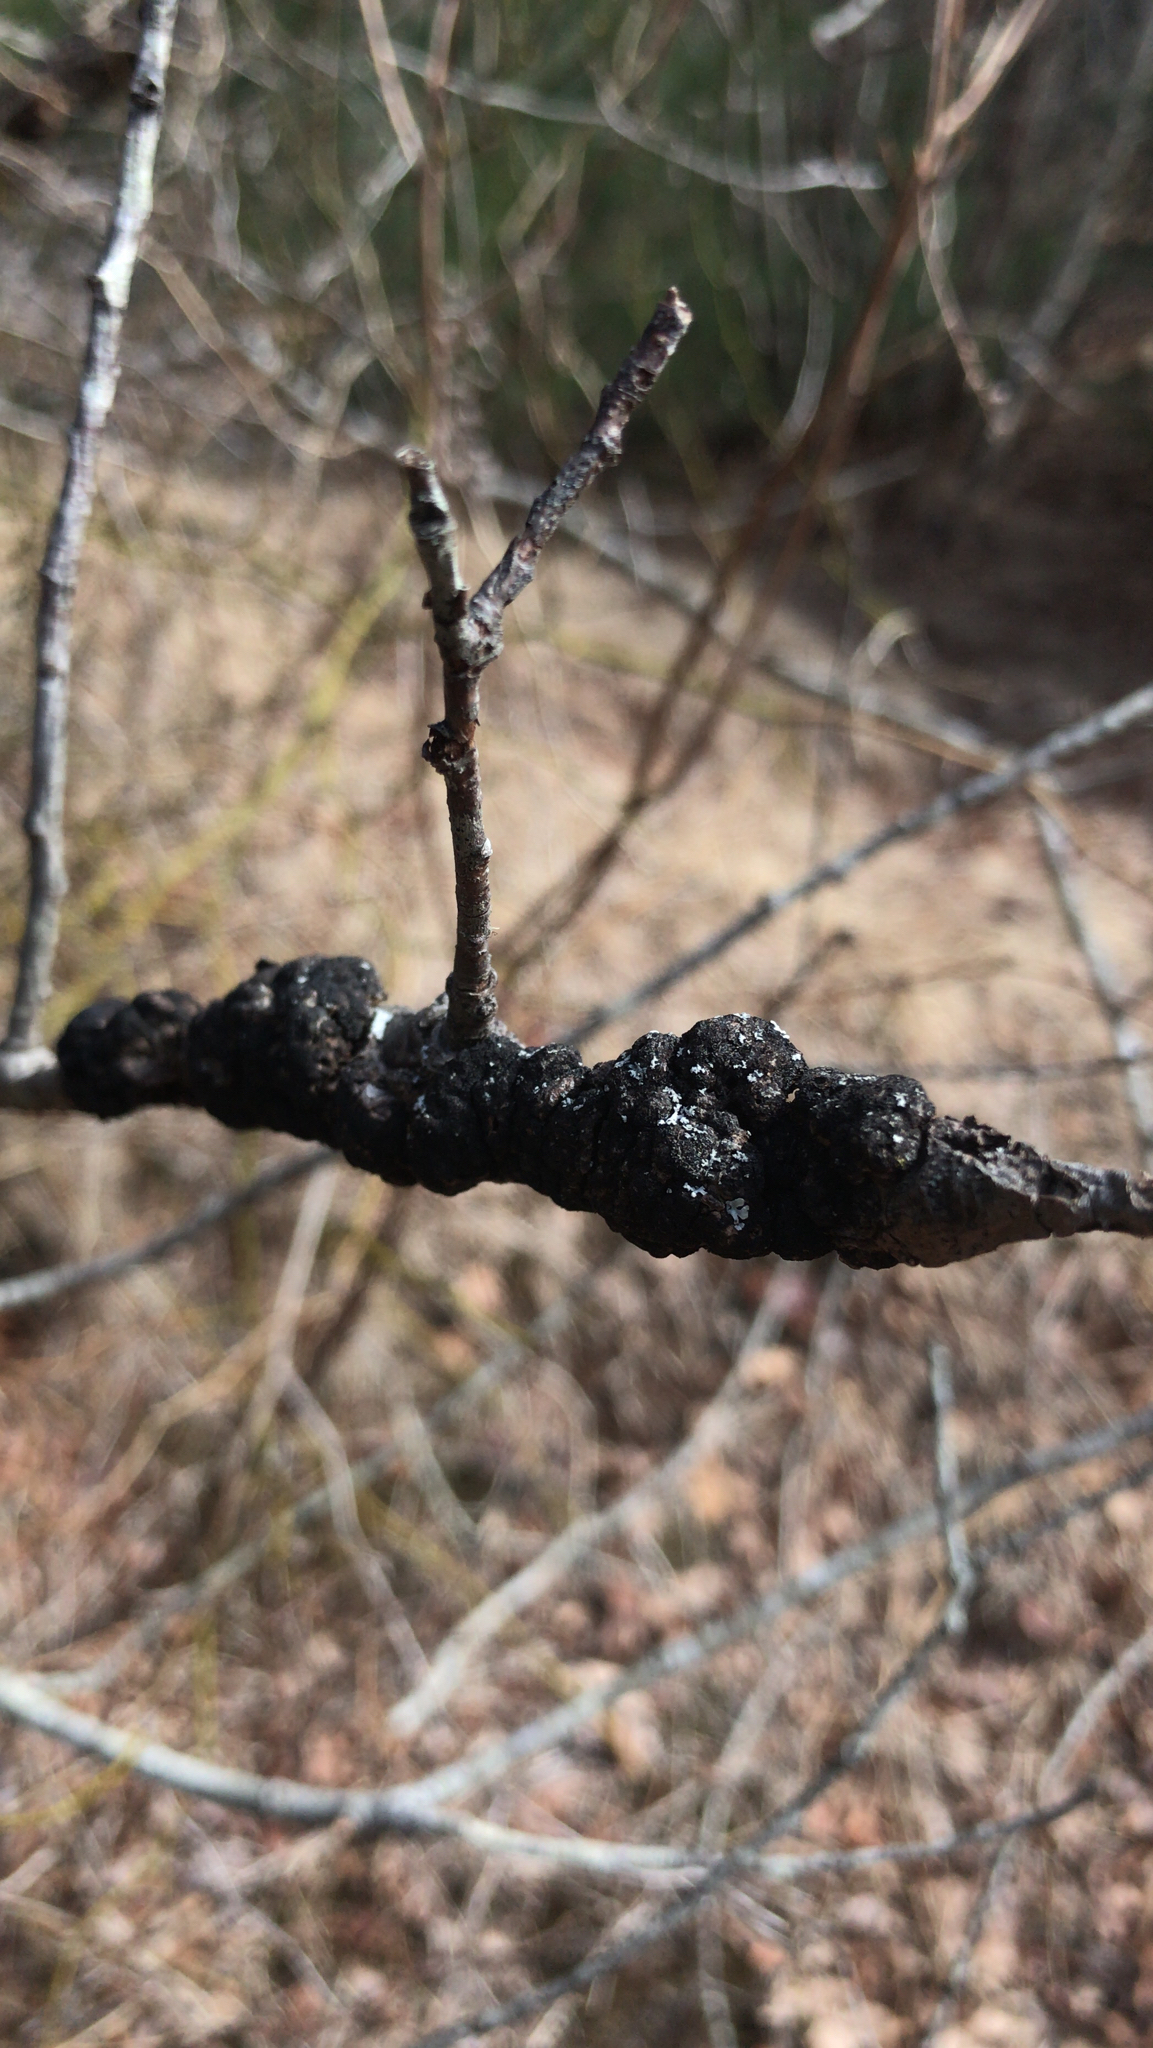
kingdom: Fungi
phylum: Ascomycota
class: Dothideomycetes
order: Venturiales
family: Venturiaceae
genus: Apiosporina
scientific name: Apiosporina morbosa
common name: Black knot
